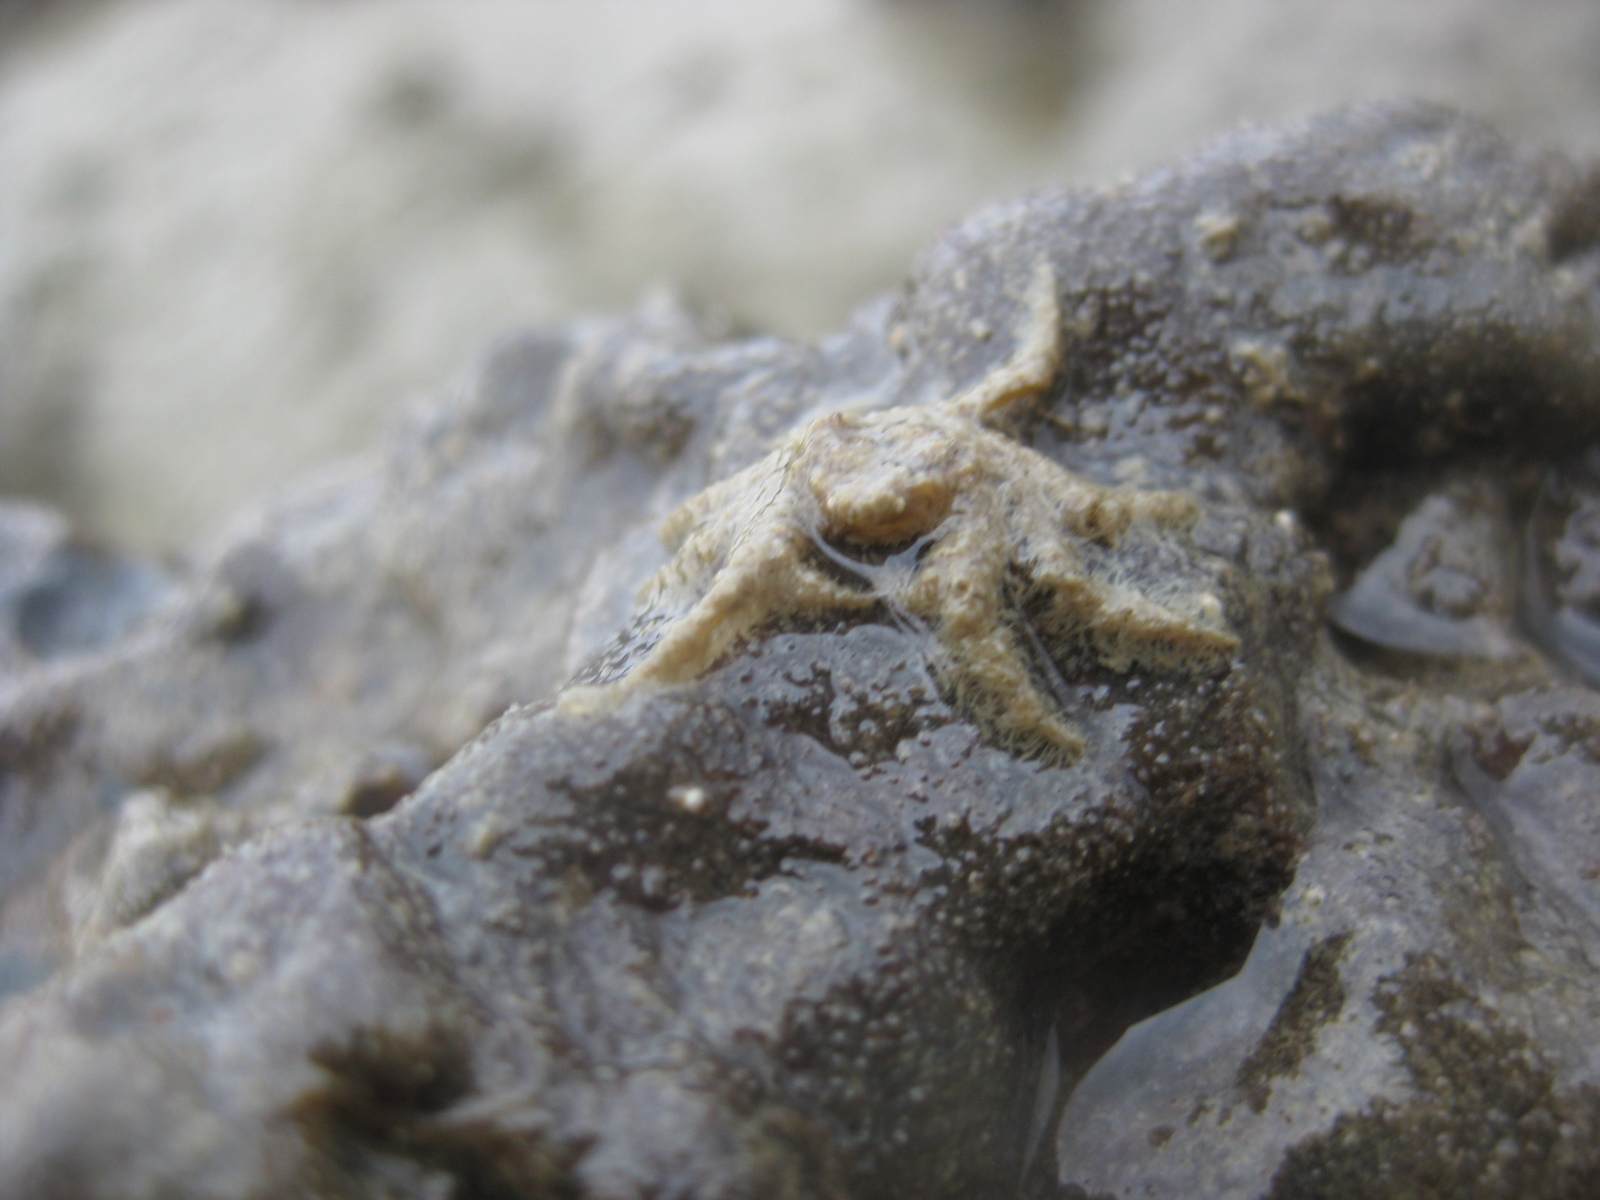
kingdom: Animalia
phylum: Arthropoda
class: Malacostraca
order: Decapoda
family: Hymenosomatidae
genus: Neohymenicus
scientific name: Neohymenicus pubescens
